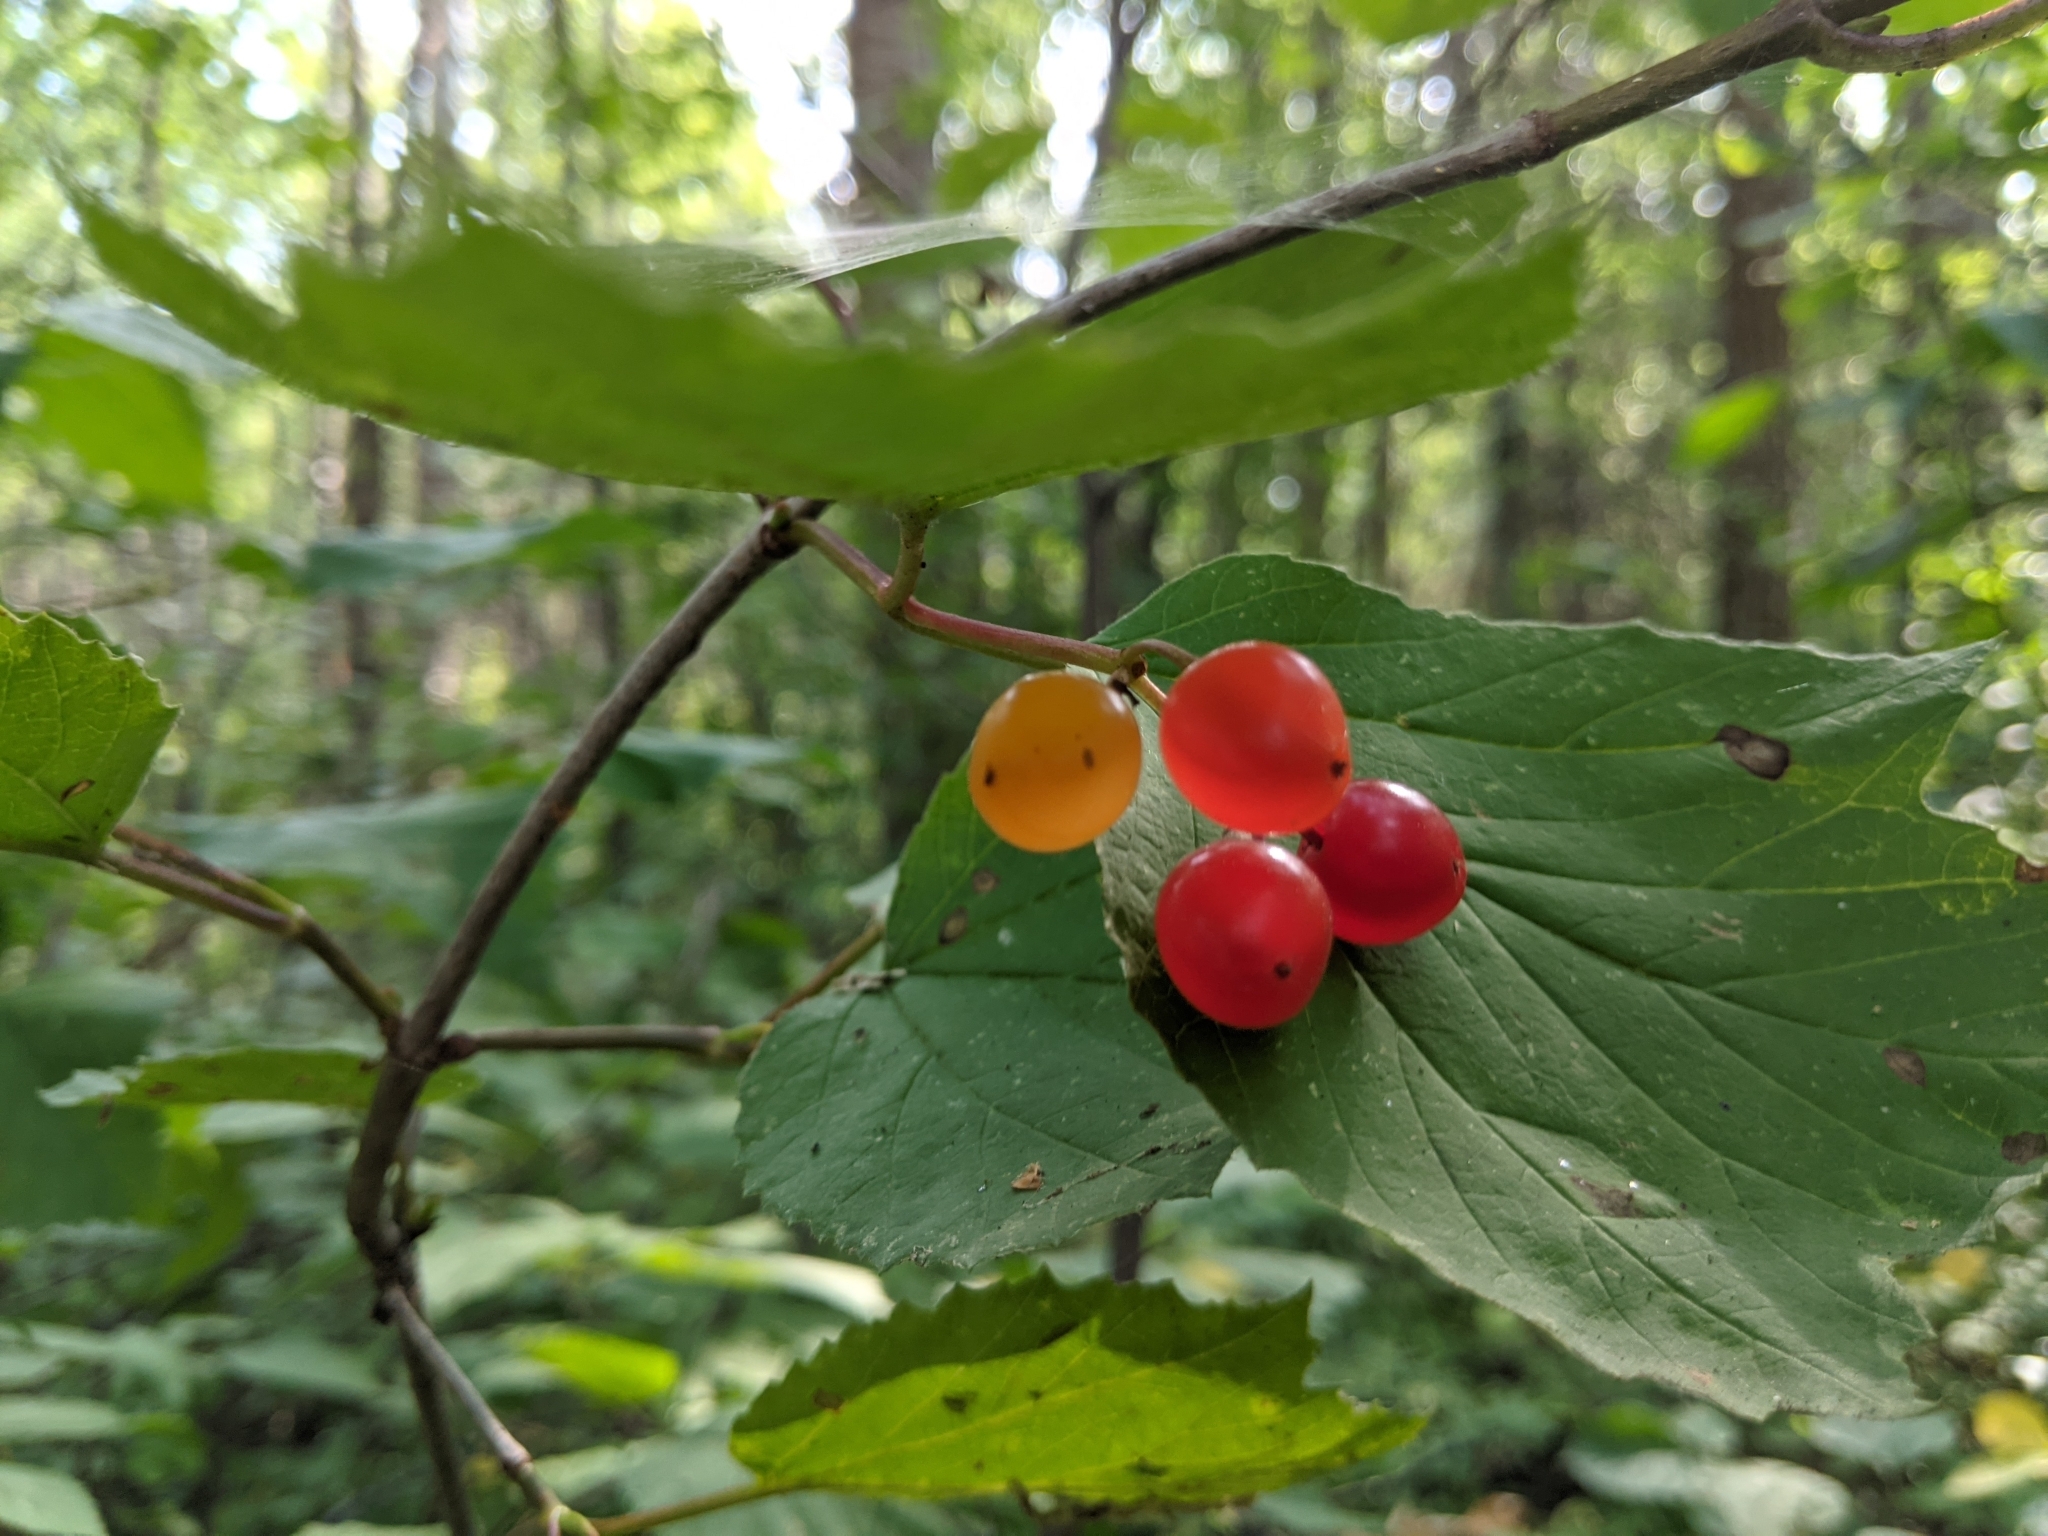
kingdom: Plantae
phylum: Tracheophyta
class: Magnoliopsida
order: Dipsacales
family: Viburnaceae
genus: Viburnum
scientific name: Viburnum edule
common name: Mooseberry
